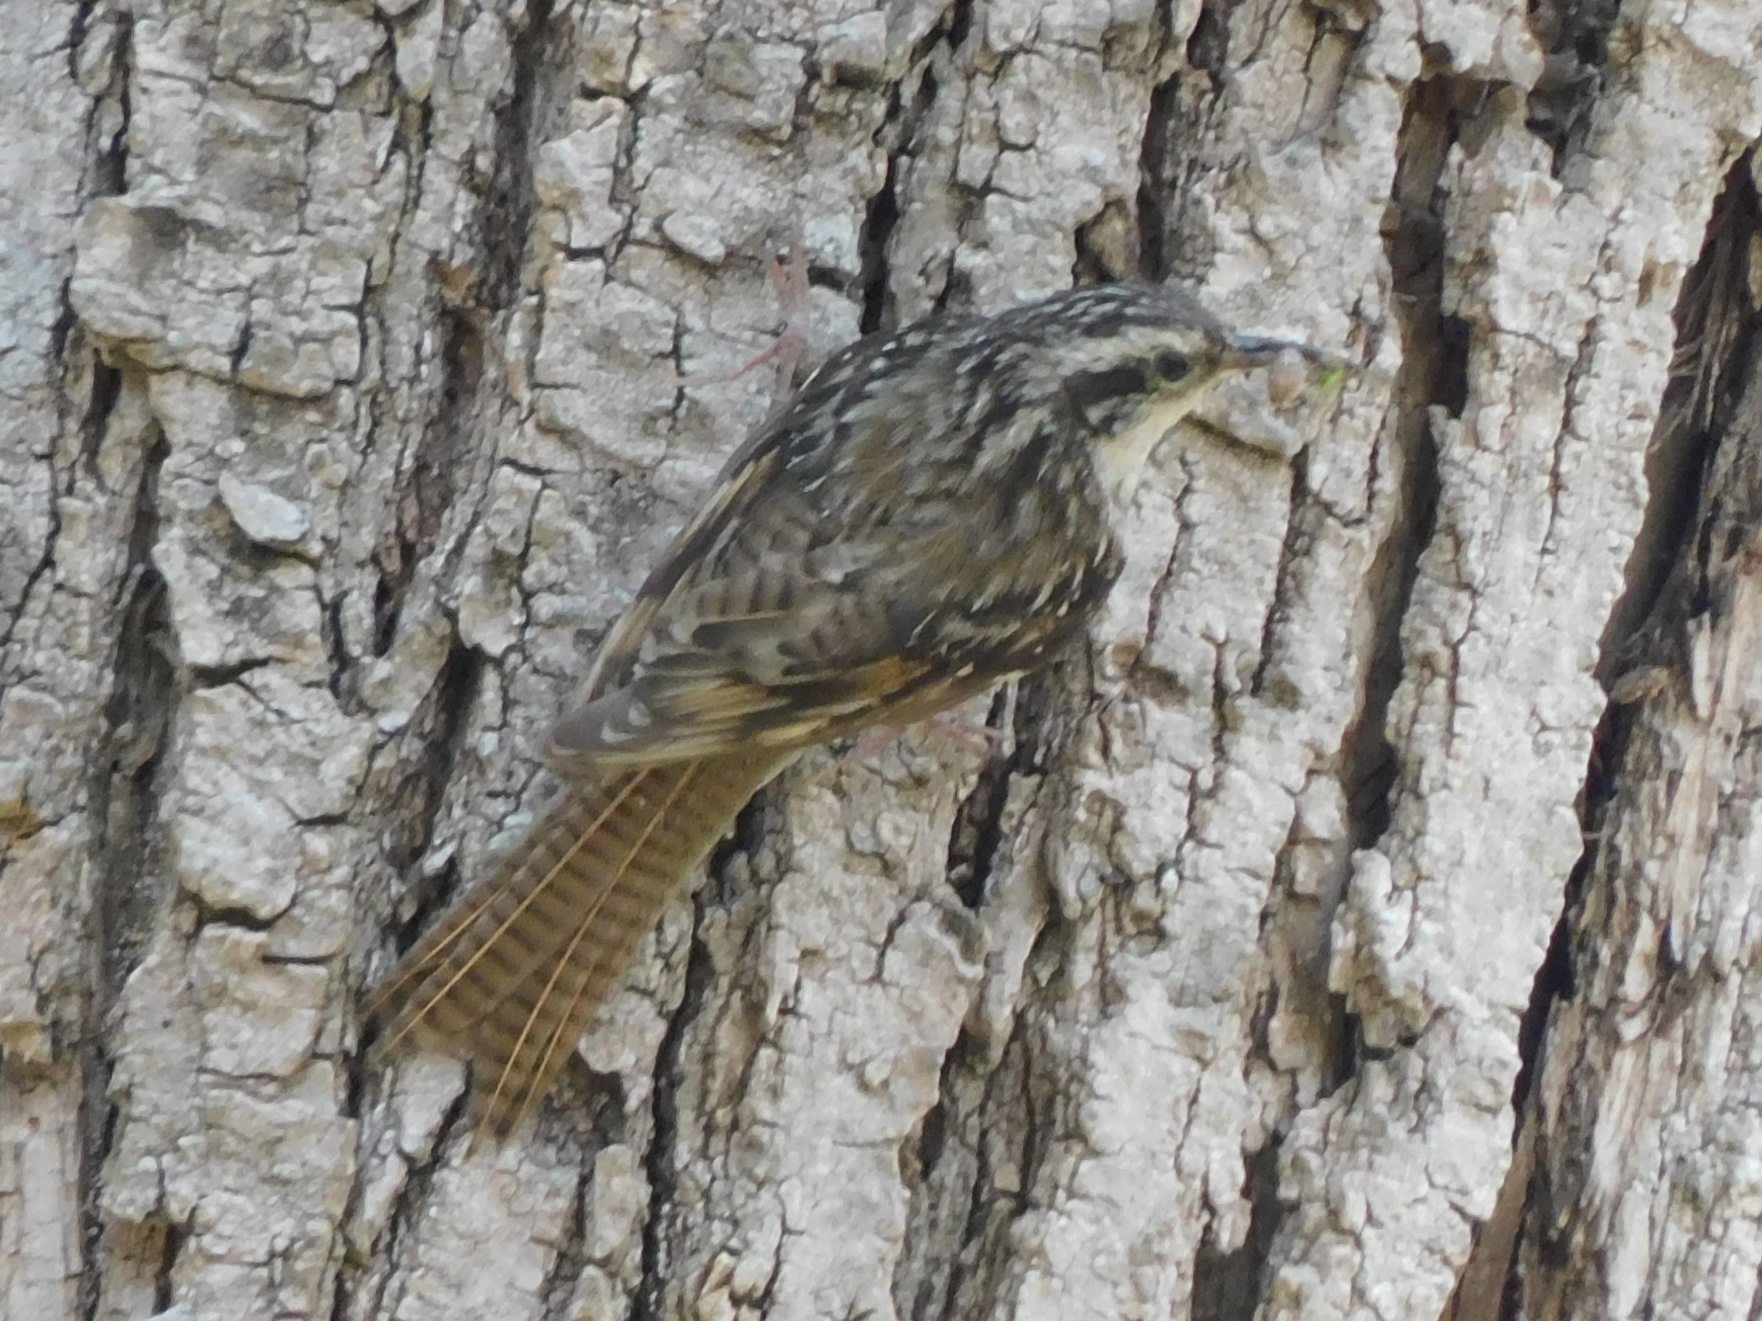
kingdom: Animalia
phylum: Chordata
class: Aves
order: Passeriformes
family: Certhiidae
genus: Certhia
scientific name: Certhia himalayana
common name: Bar-tailed treecreeper
